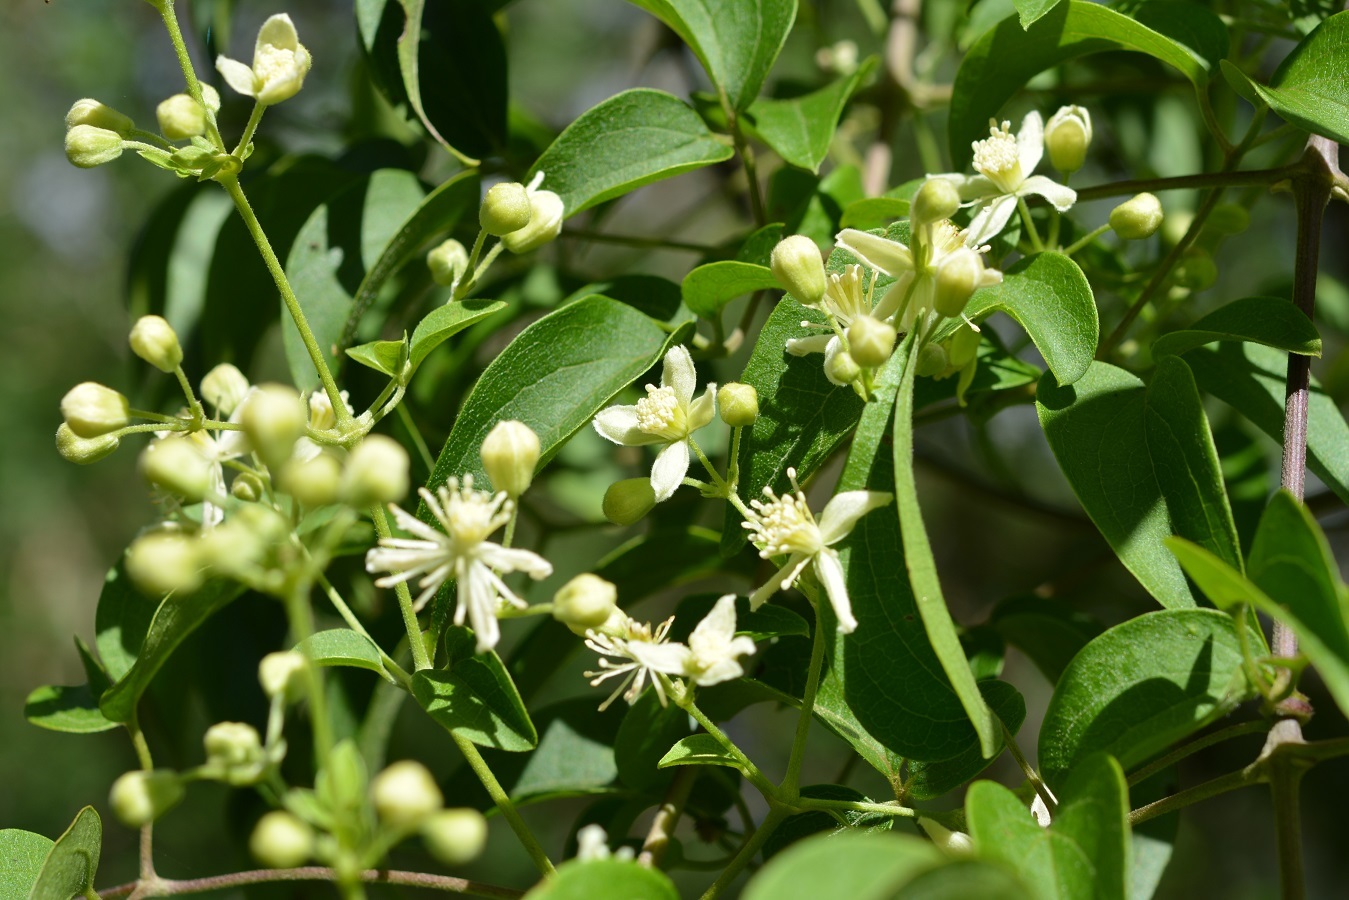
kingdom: Plantae
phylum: Tracheophyta
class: Magnoliopsida
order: Ranunculales
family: Ranunculaceae
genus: Clematis
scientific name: Clematis dioica
